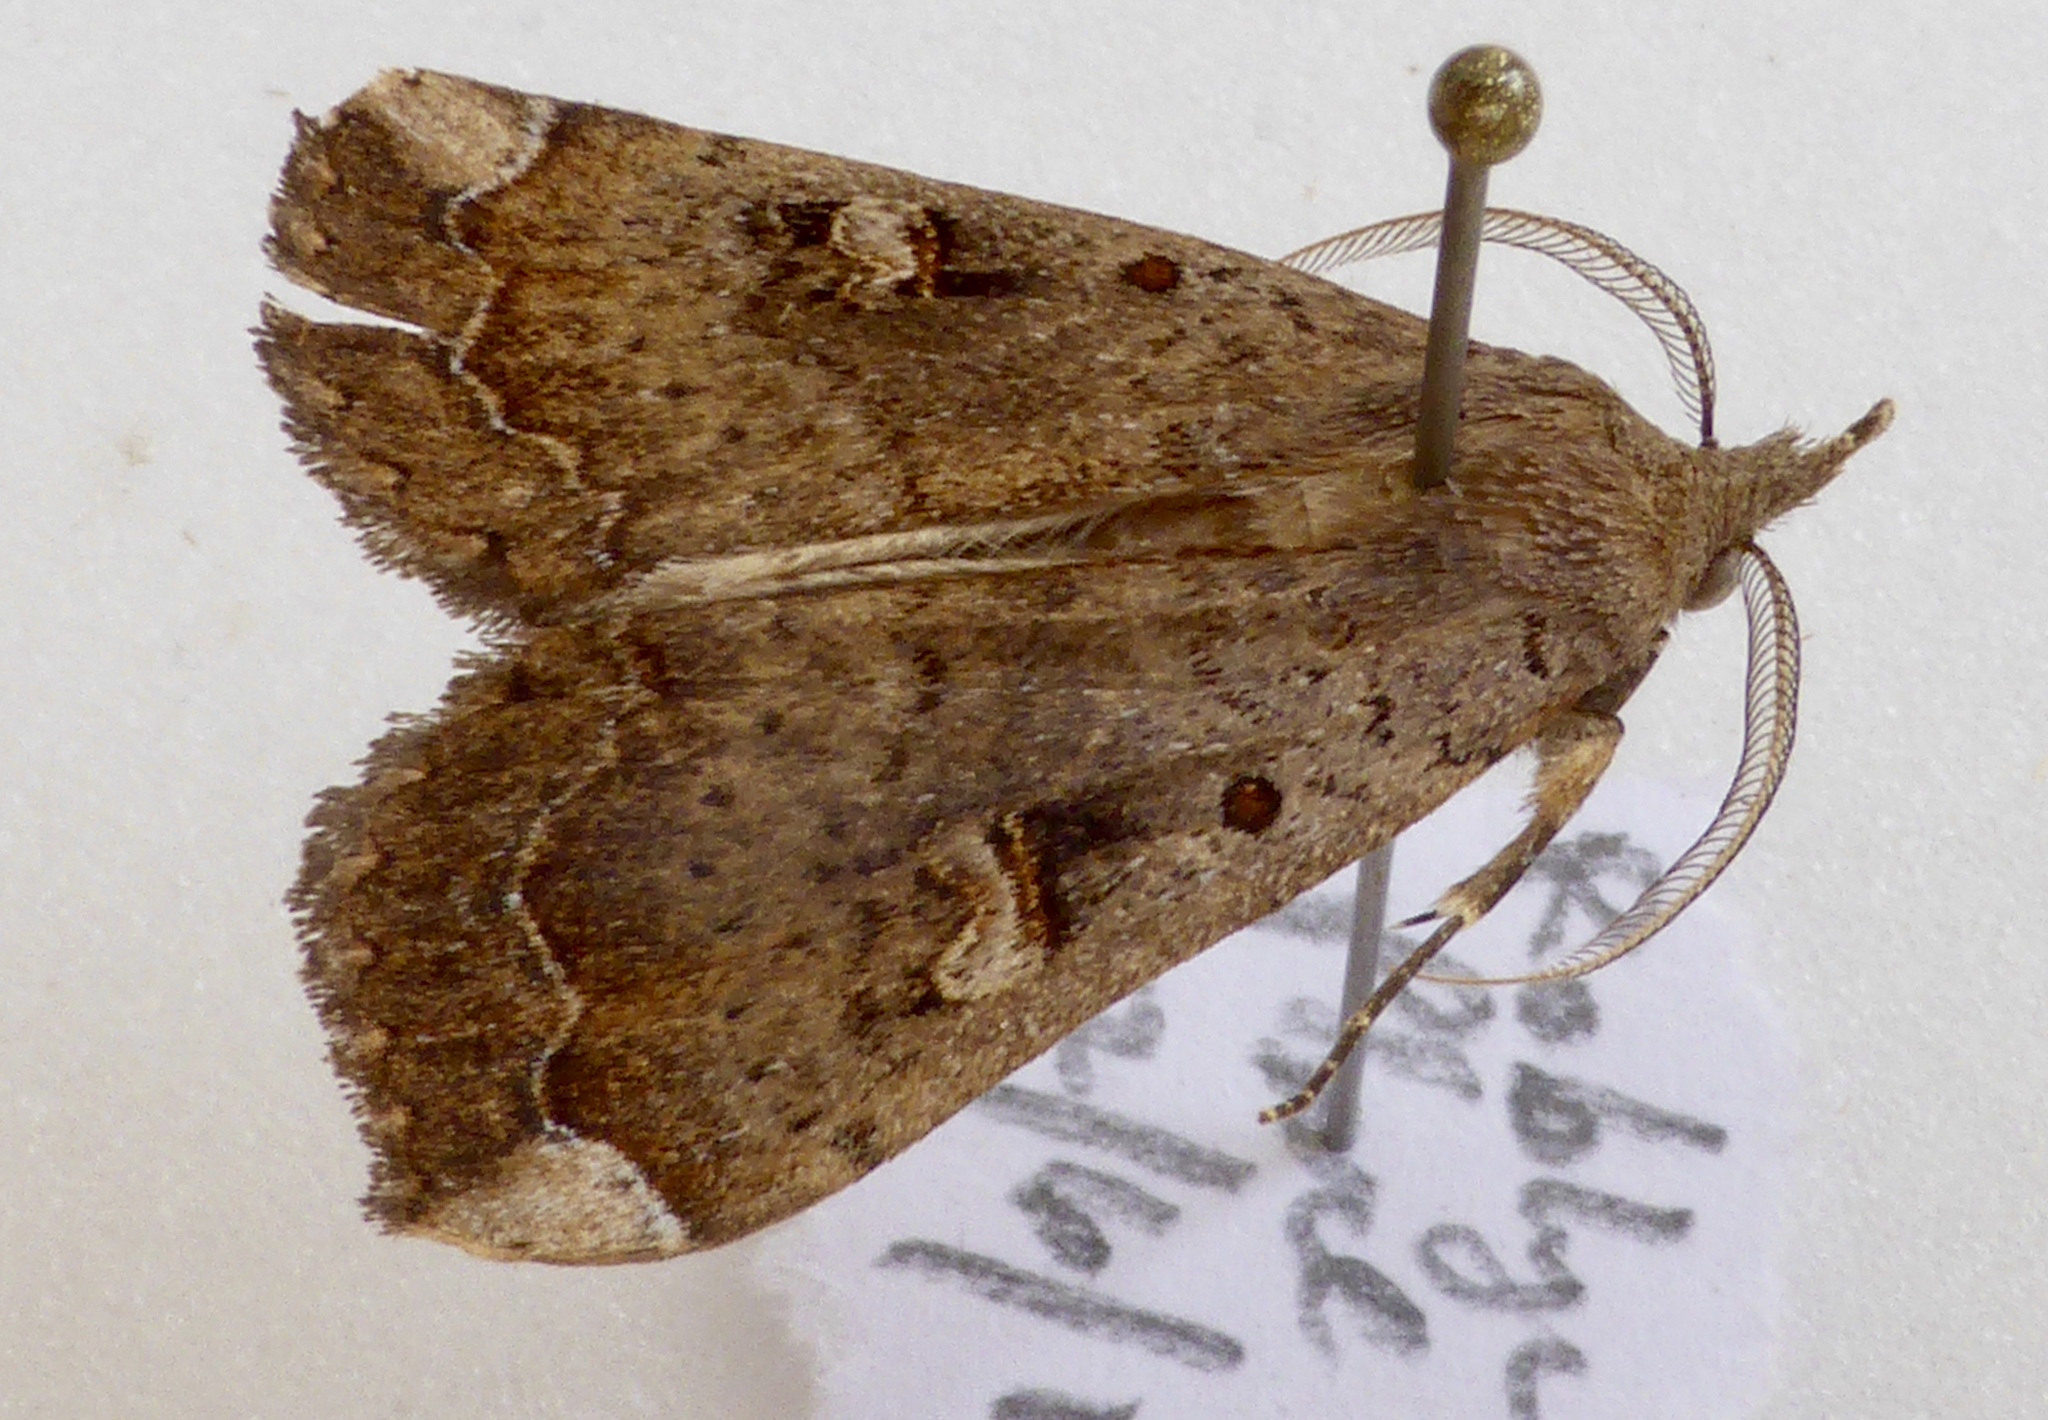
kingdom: Animalia
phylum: Arthropoda
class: Insecta
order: Lepidoptera
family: Erebidae
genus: Rhapsa
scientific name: Rhapsa scotosialis
